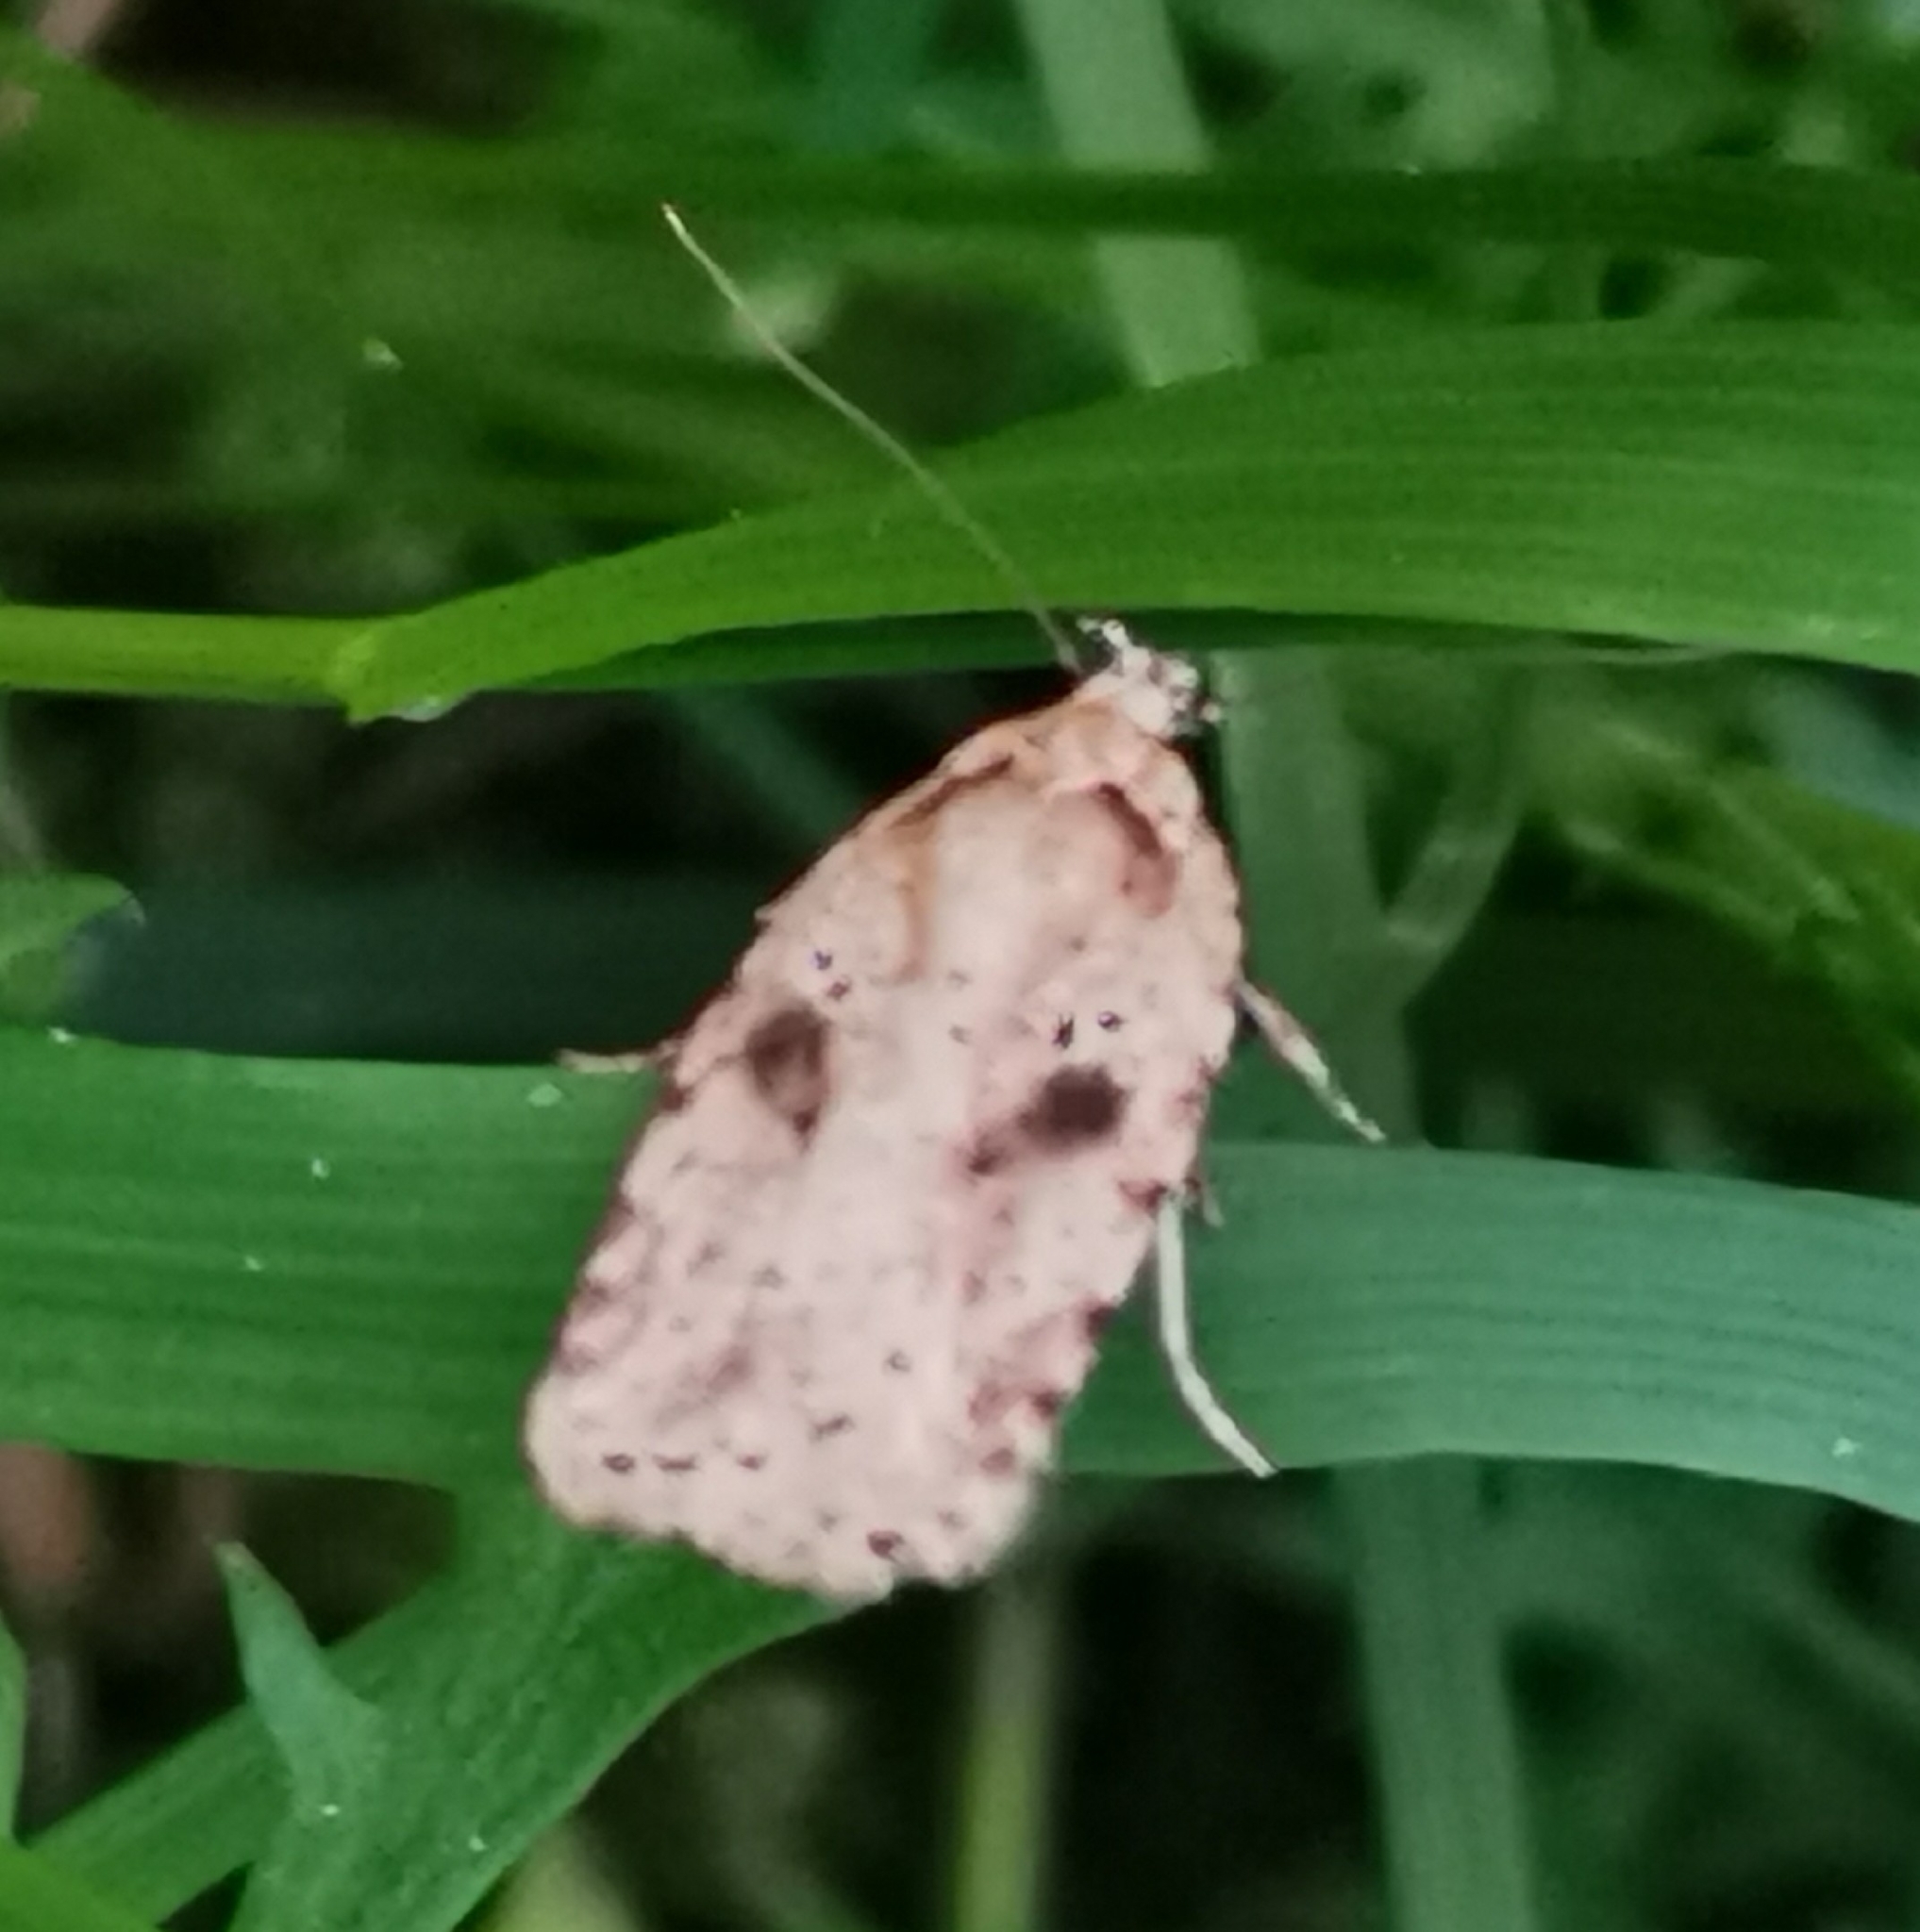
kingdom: Animalia
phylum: Arthropoda
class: Insecta
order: Lepidoptera
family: Depressariidae
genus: Agonopterix
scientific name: Agonopterix arenella
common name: Brindled flat-body
